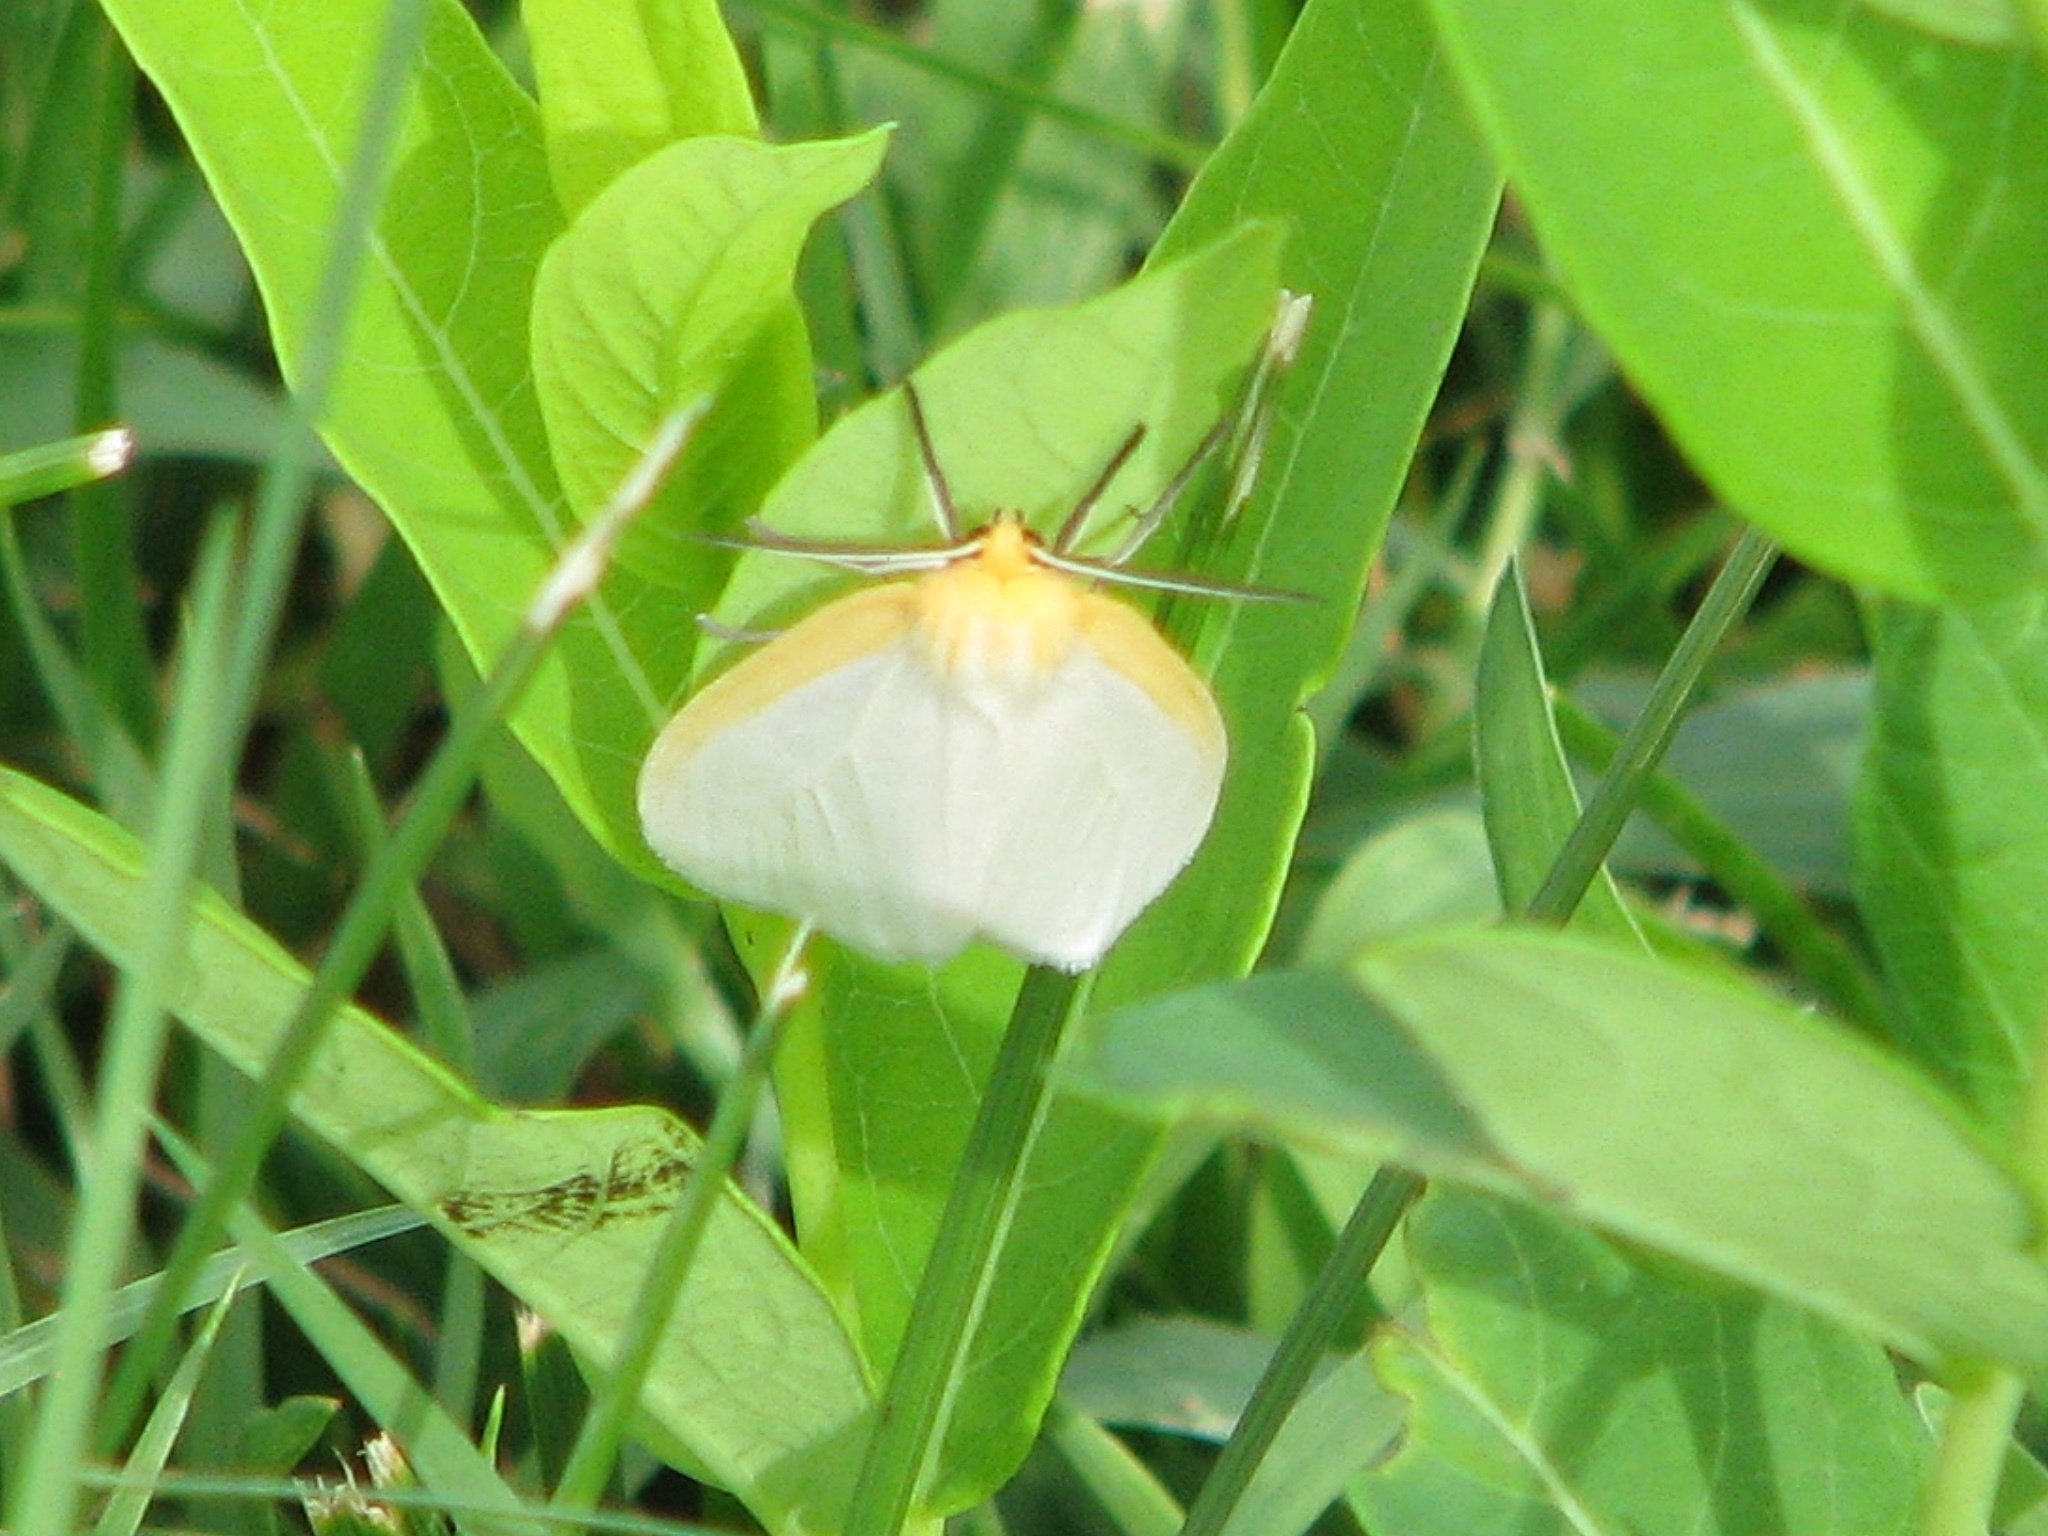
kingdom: Animalia
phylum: Arthropoda
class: Insecta
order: Lepidoptera
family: Erebidae
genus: Cycnia
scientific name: Cycnia tenera
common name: Delicate cycnia moth
